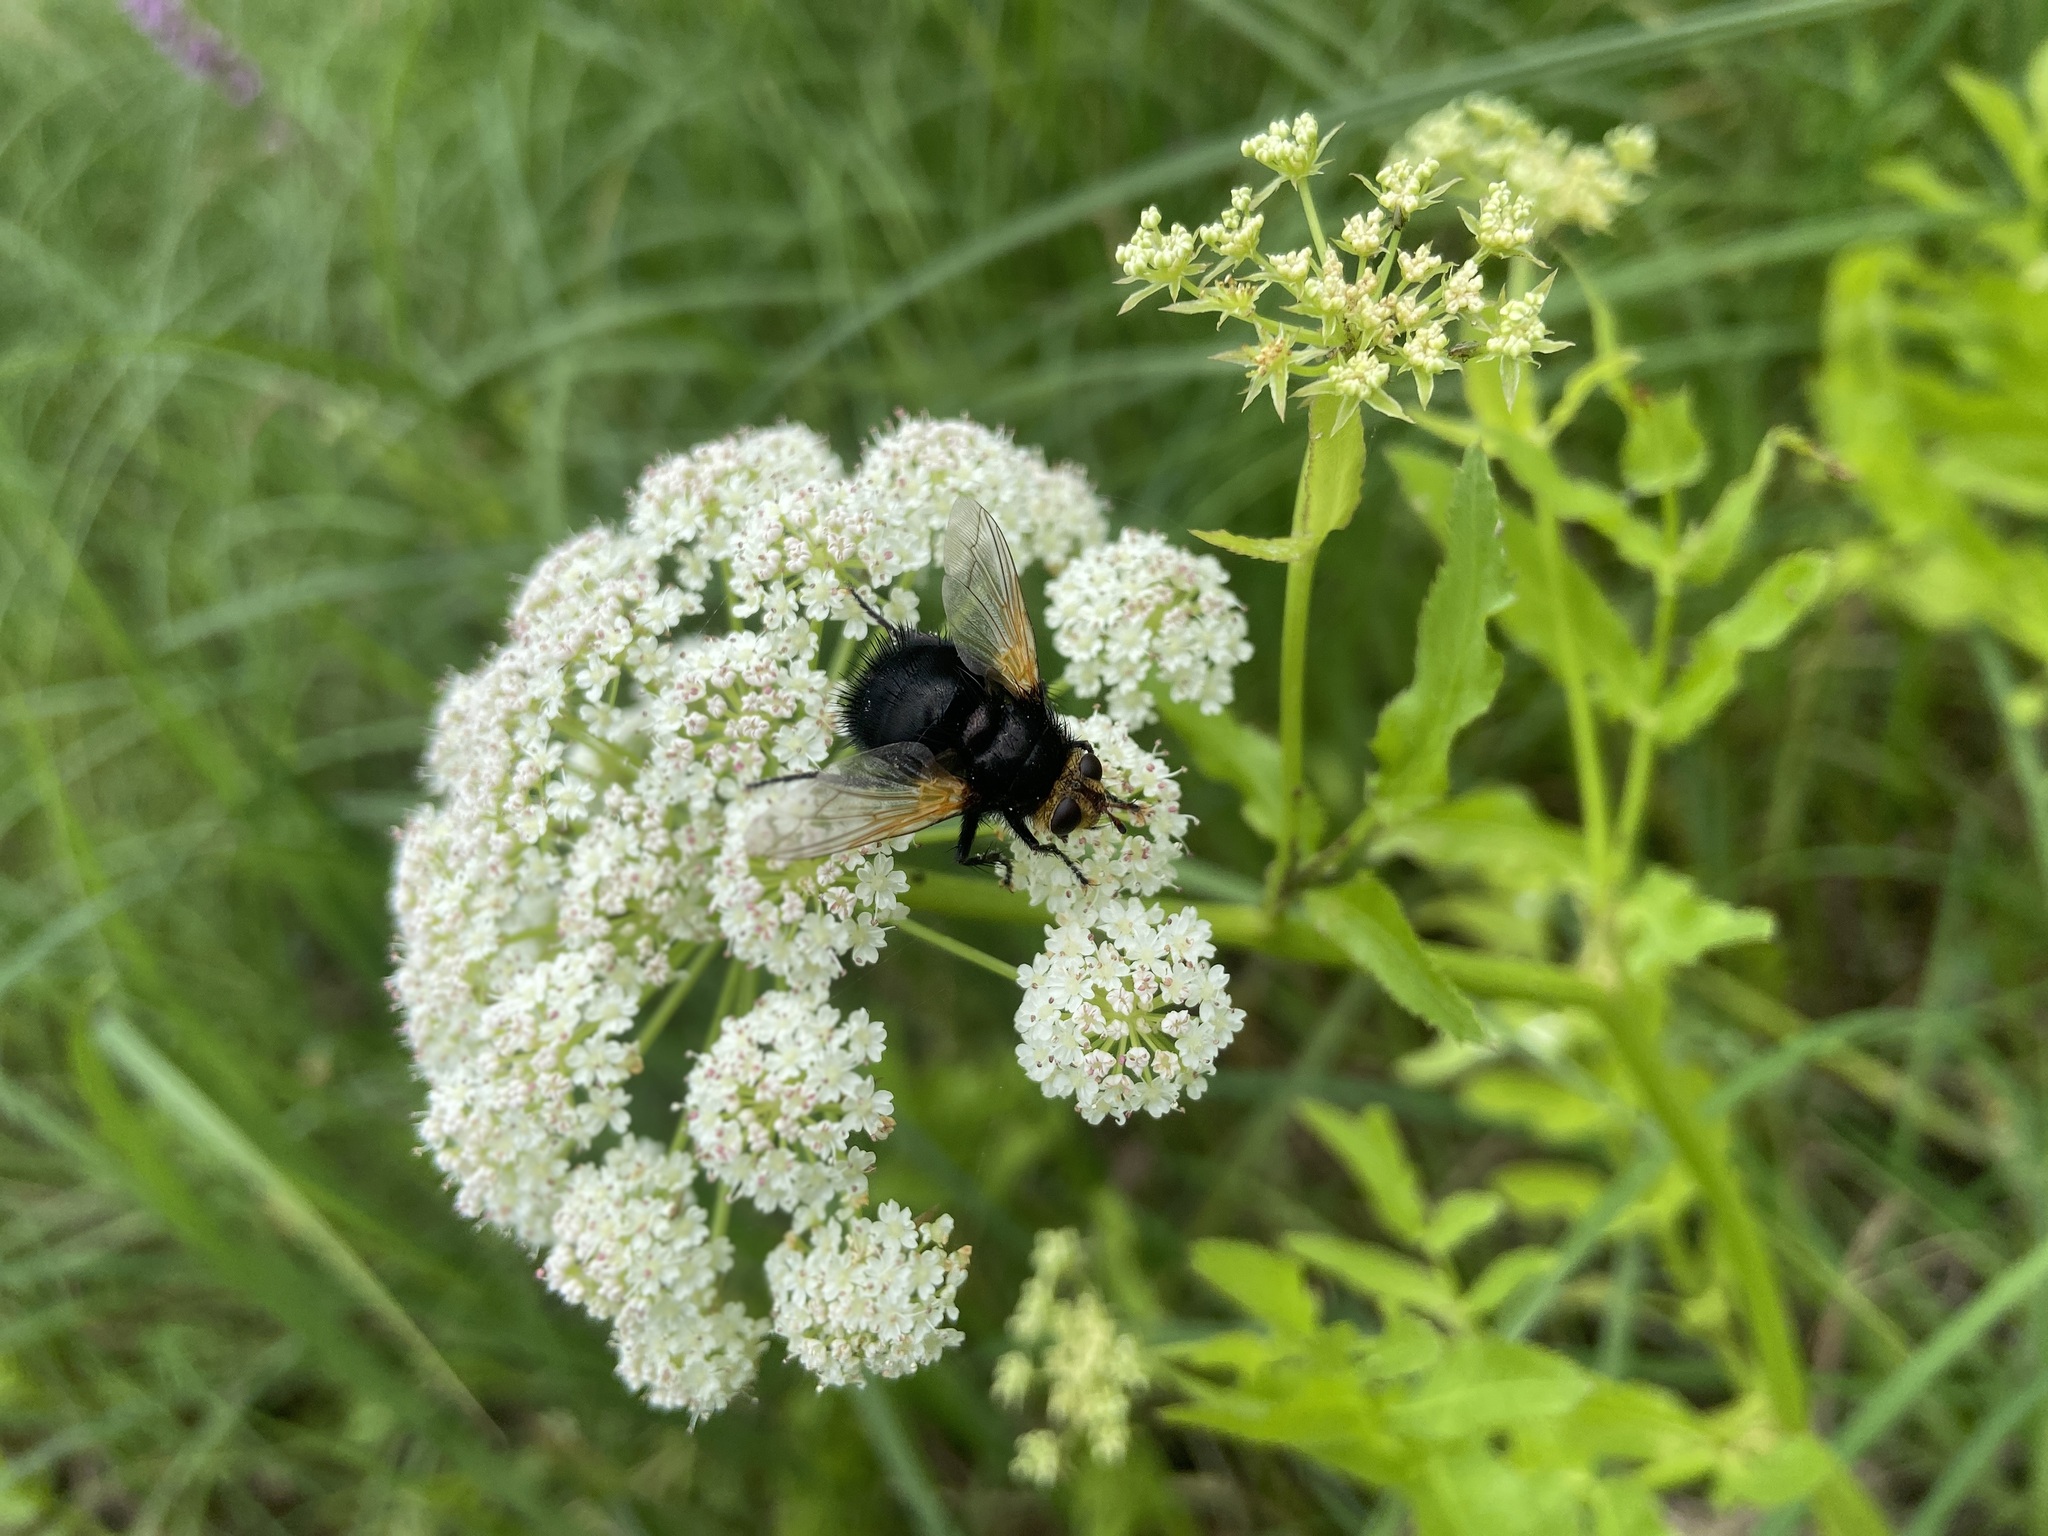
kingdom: Animalia
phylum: Arthropoda
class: Insecta
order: Diptera
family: Tachinidae
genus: Tachina
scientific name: Tachina grossa
